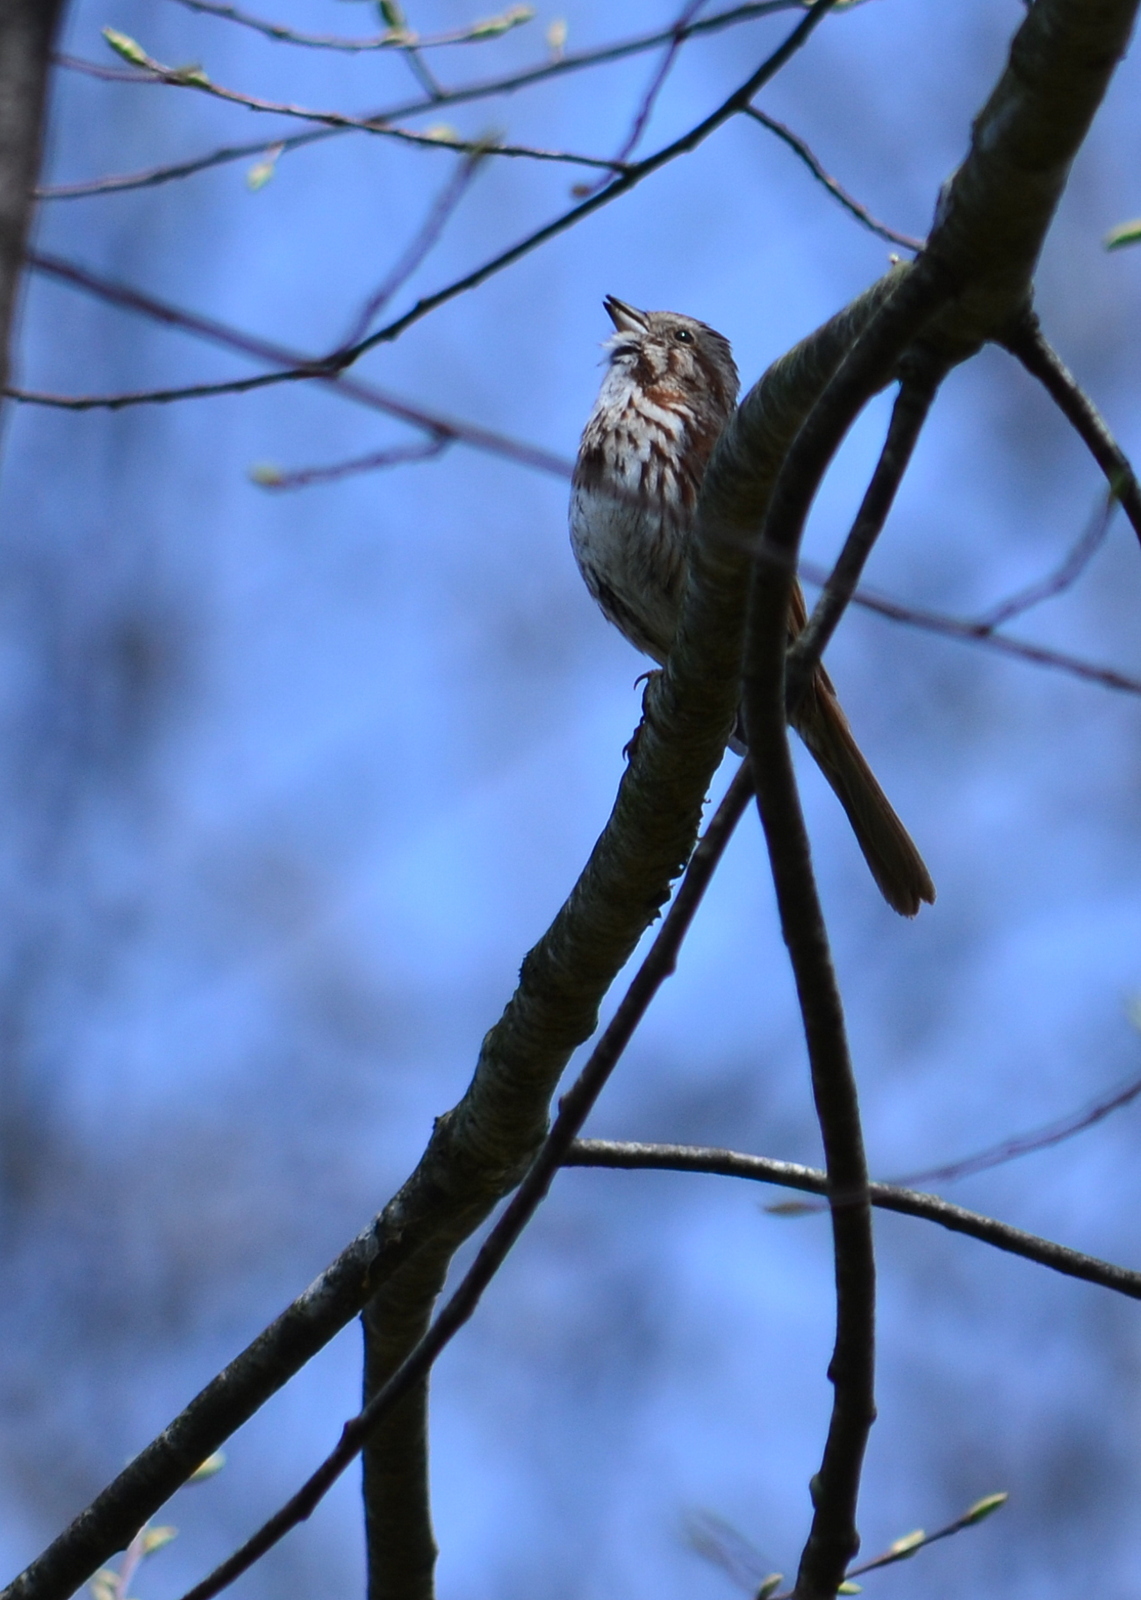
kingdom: Animalia
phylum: Chordata
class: Aves
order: Passeriformes
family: Passerellidae
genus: Melospiza
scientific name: Melospiza melodia
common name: Song sparrow
